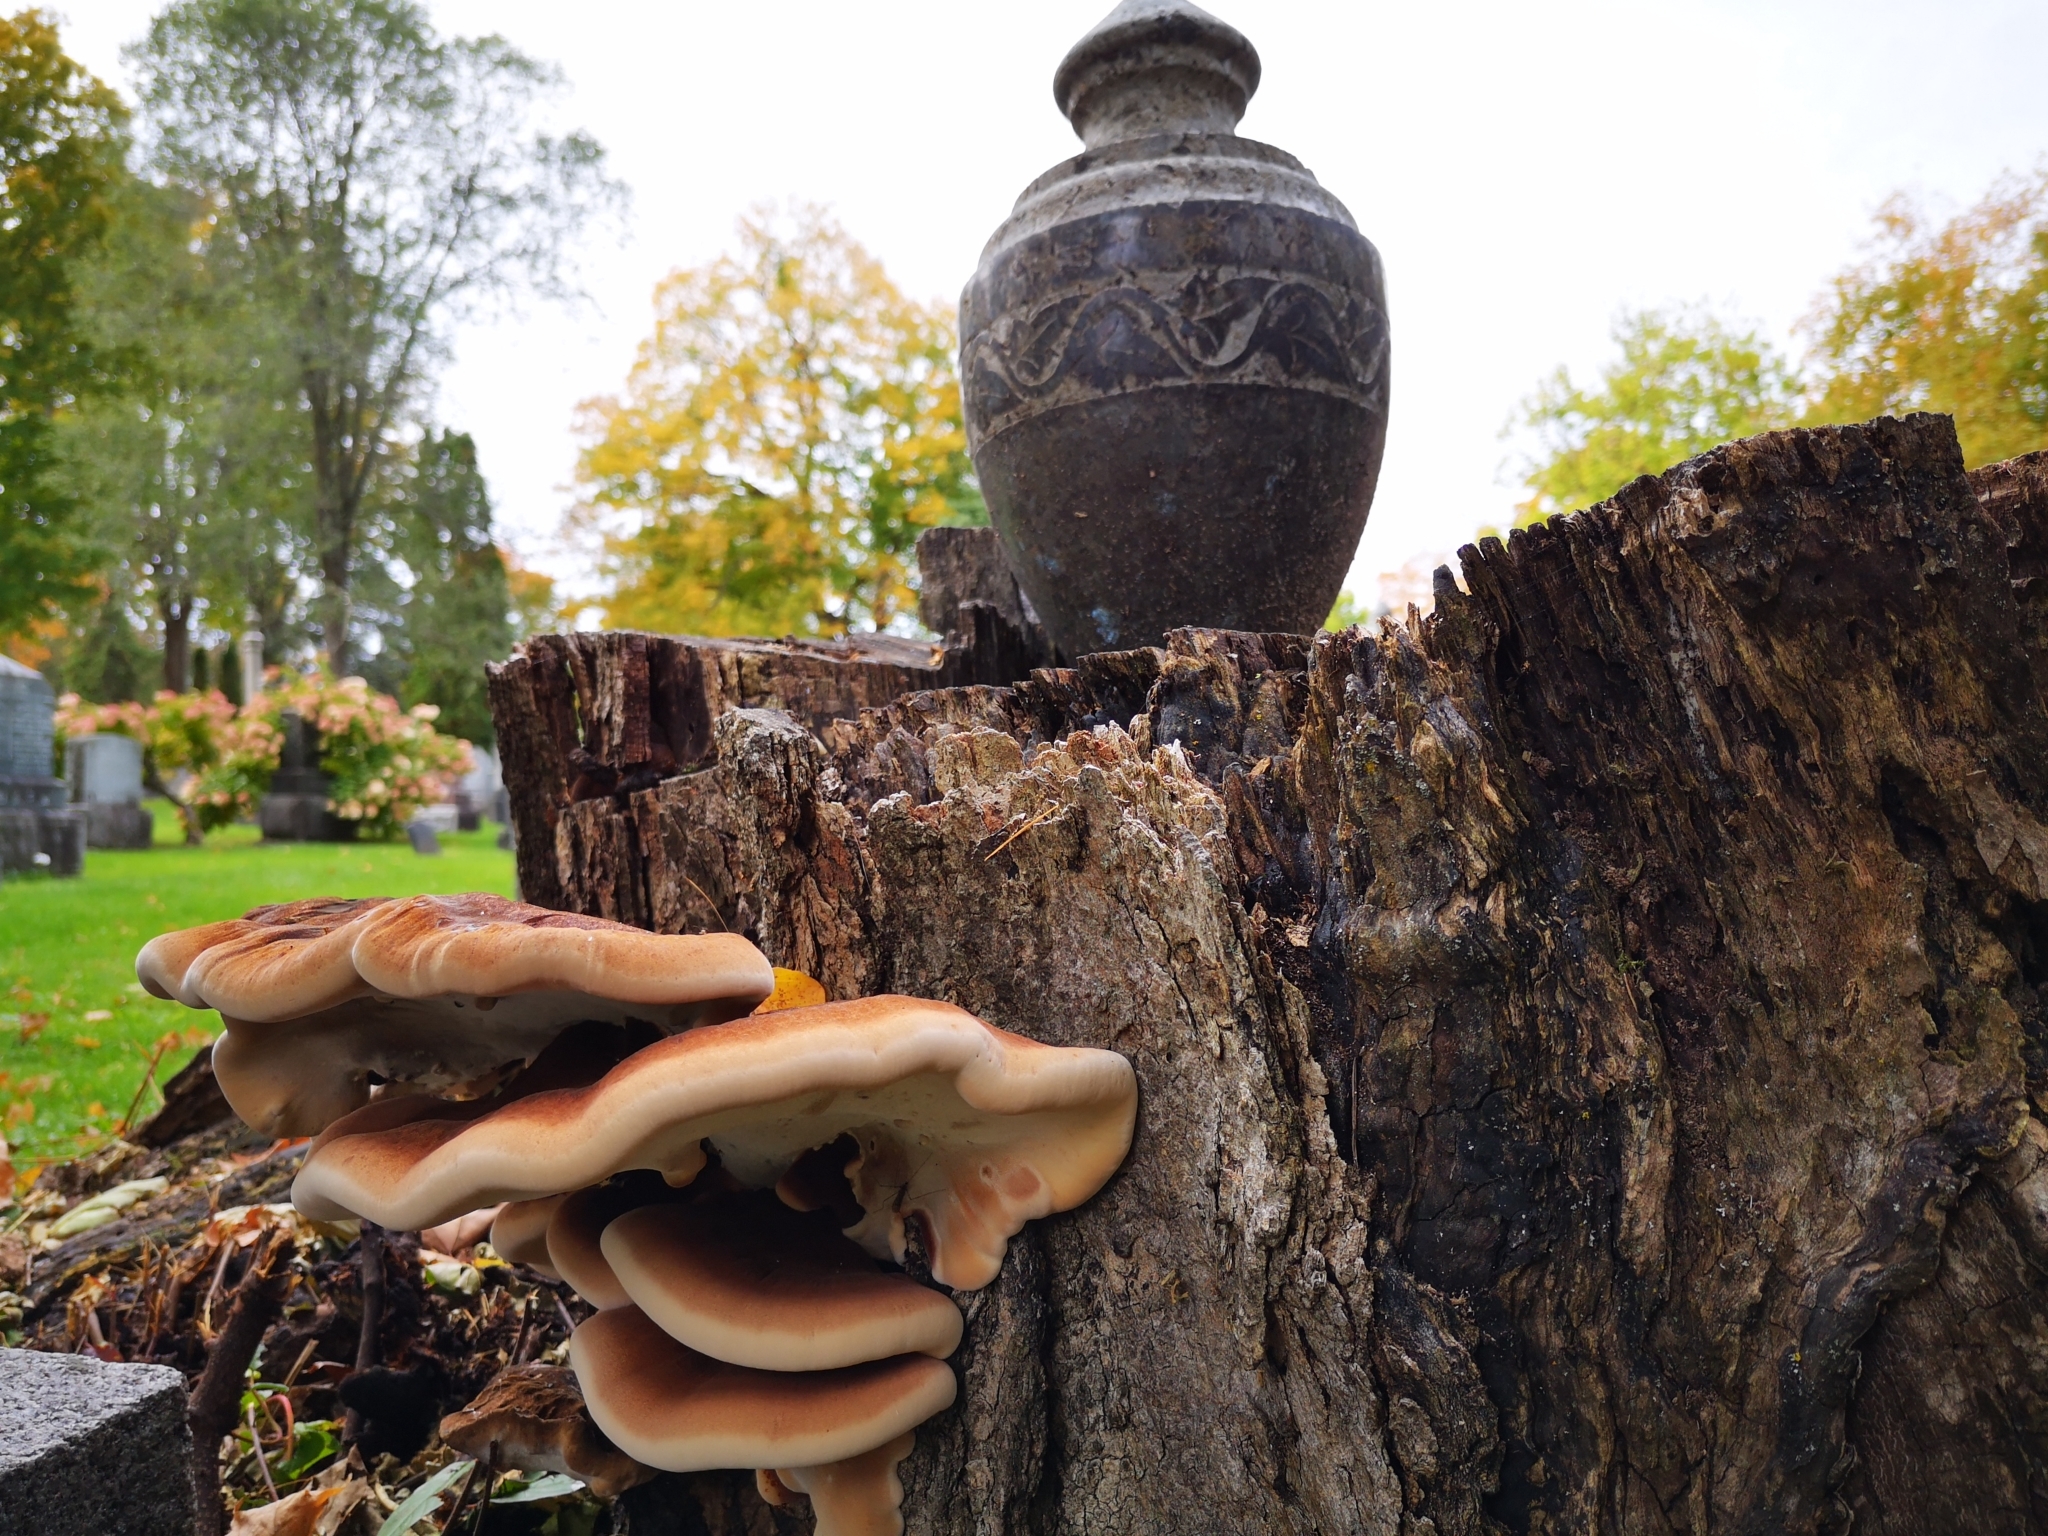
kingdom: Fungi
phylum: Basidiomycota
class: Agaricomycetes
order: Polyporales
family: Ischnodermataceae
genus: Ischnoderma
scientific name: Ischnoderma resinosum
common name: Resinous polypore
